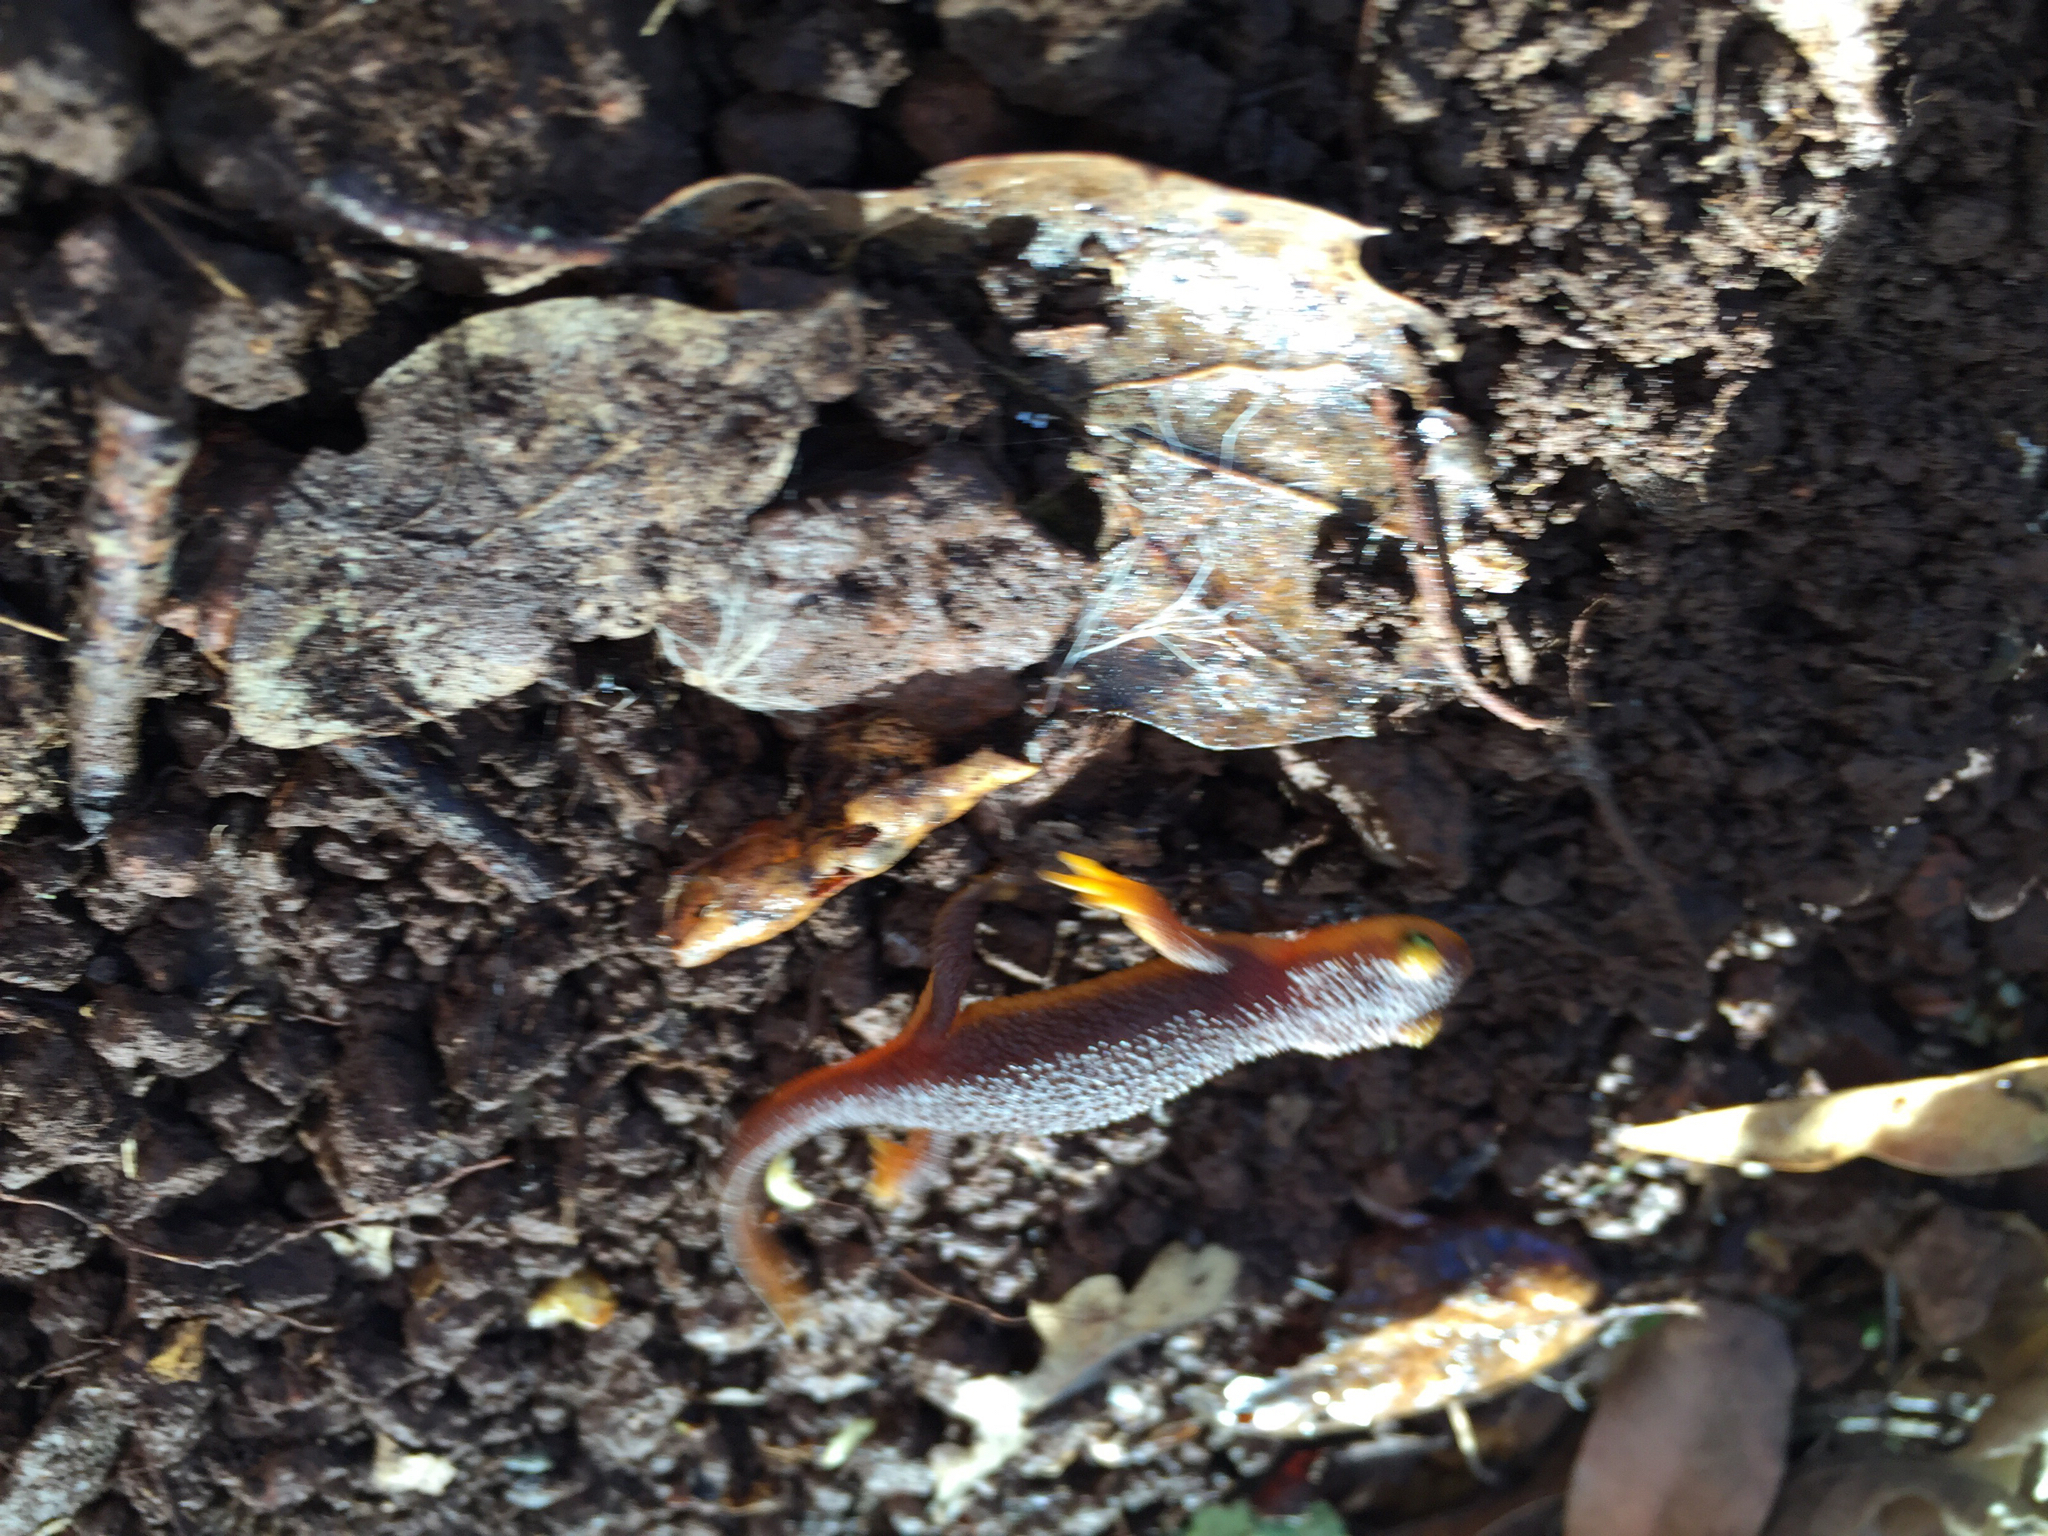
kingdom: Animalia
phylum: Chordata
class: Amphibia
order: Caudata
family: Salamandridae
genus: Taricha
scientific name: Taricha torosa
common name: California newt
